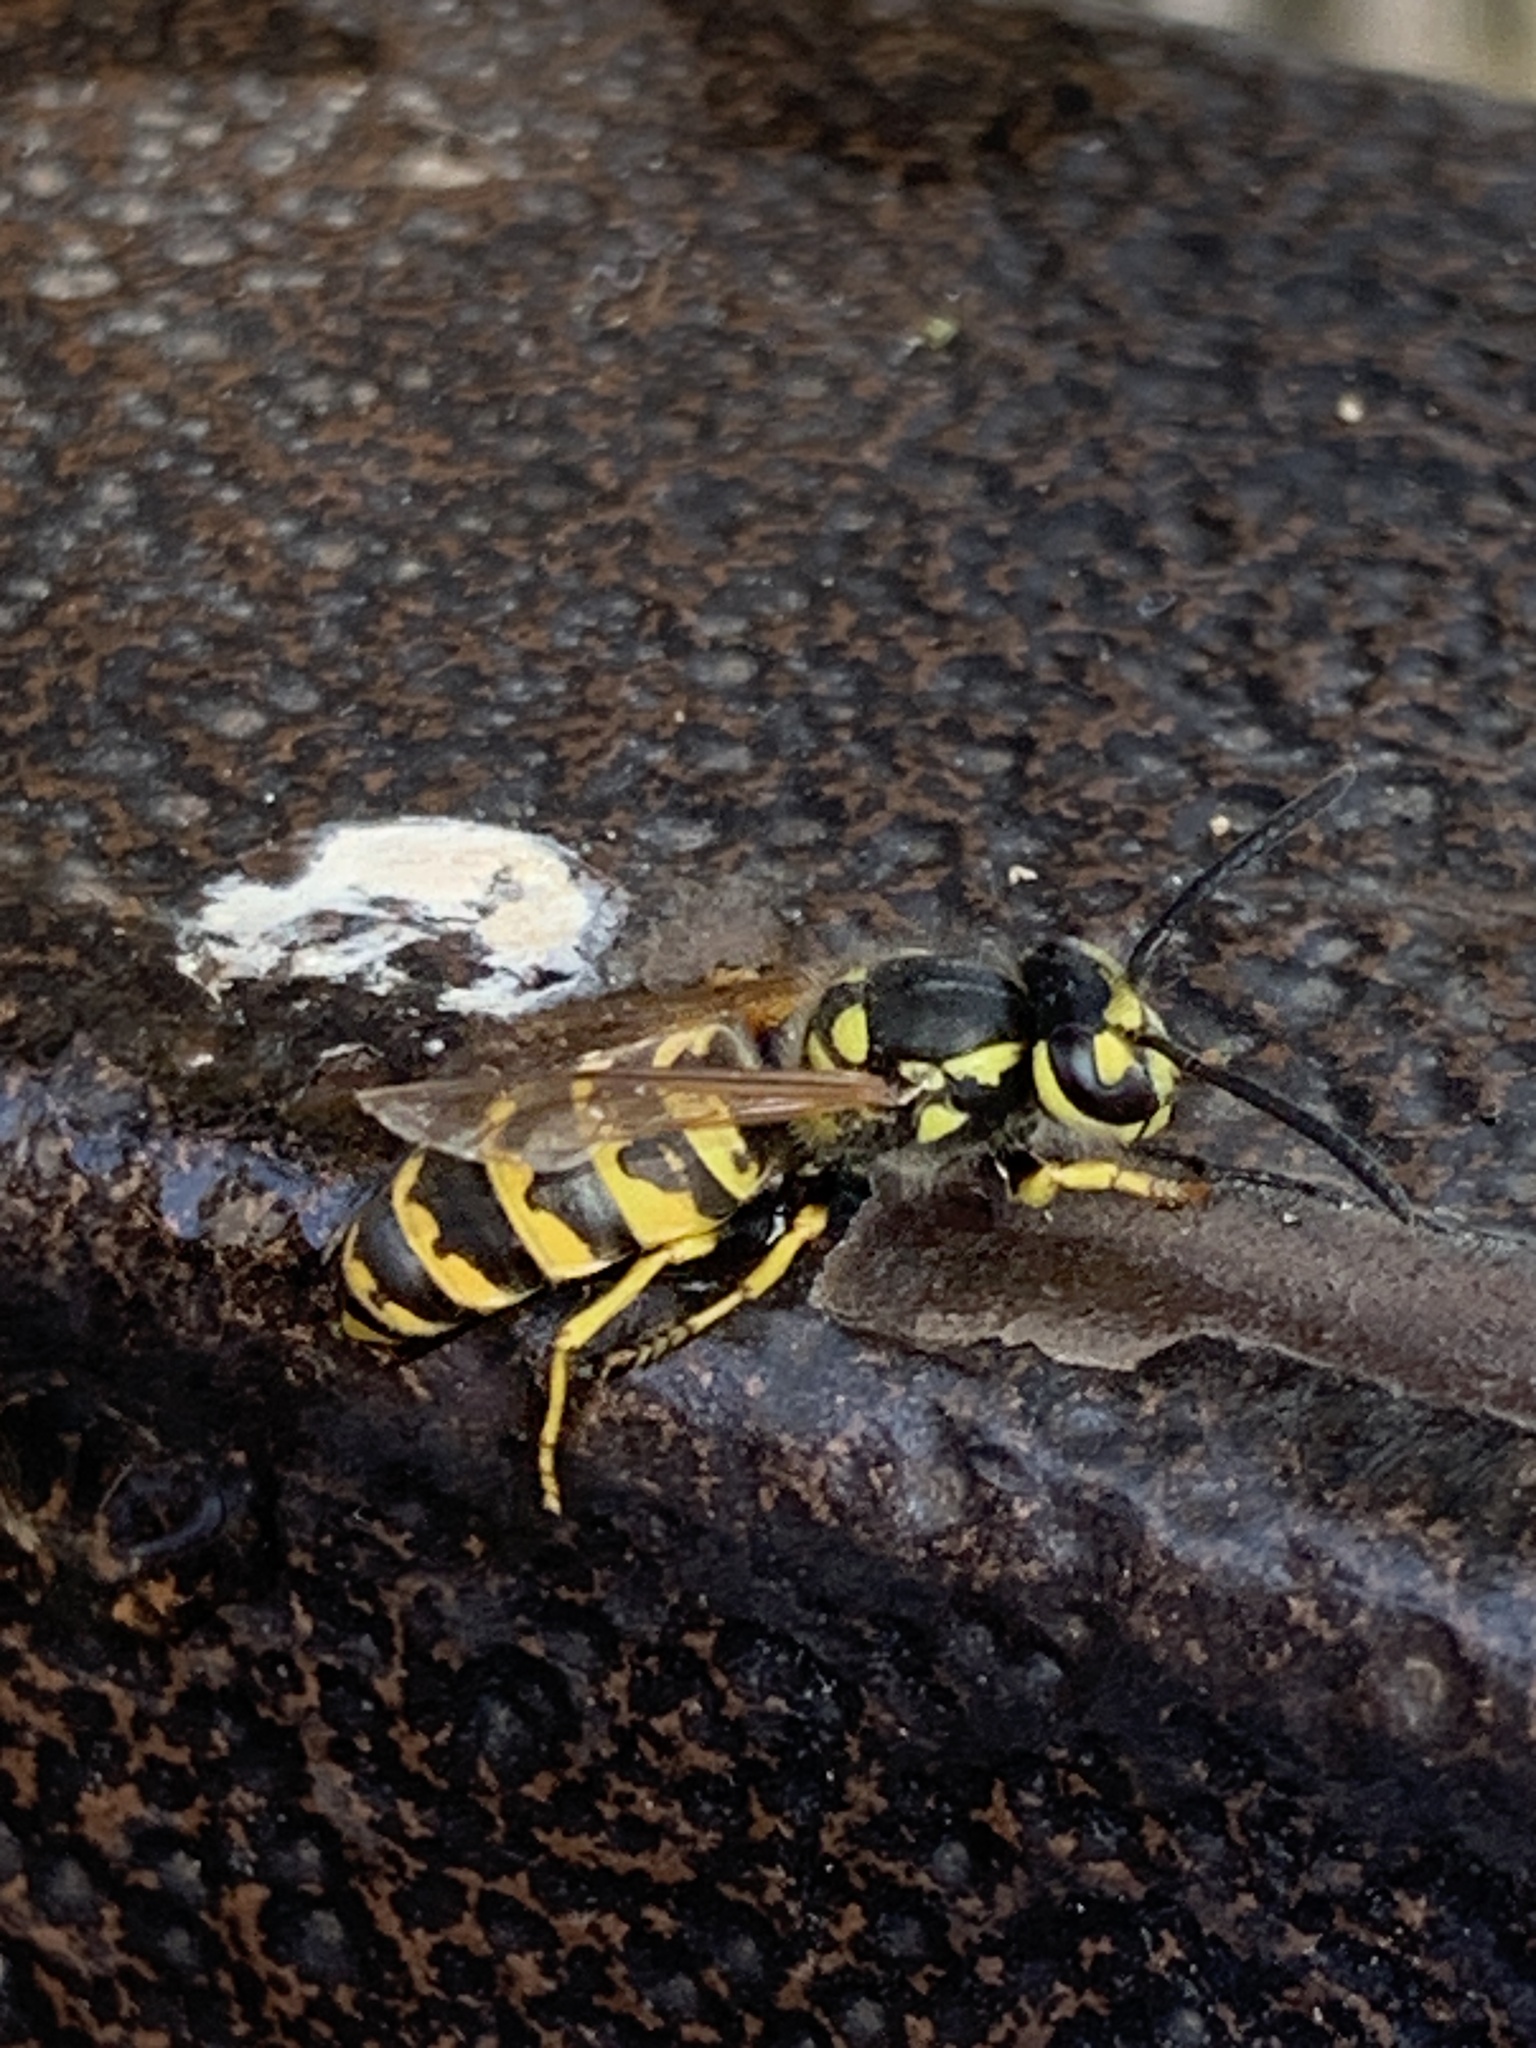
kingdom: Animalia
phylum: Arthropoda
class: Insecta
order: Hymenoptera
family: Vespidae
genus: Vespula
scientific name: Vespula germanica
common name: German wasp
